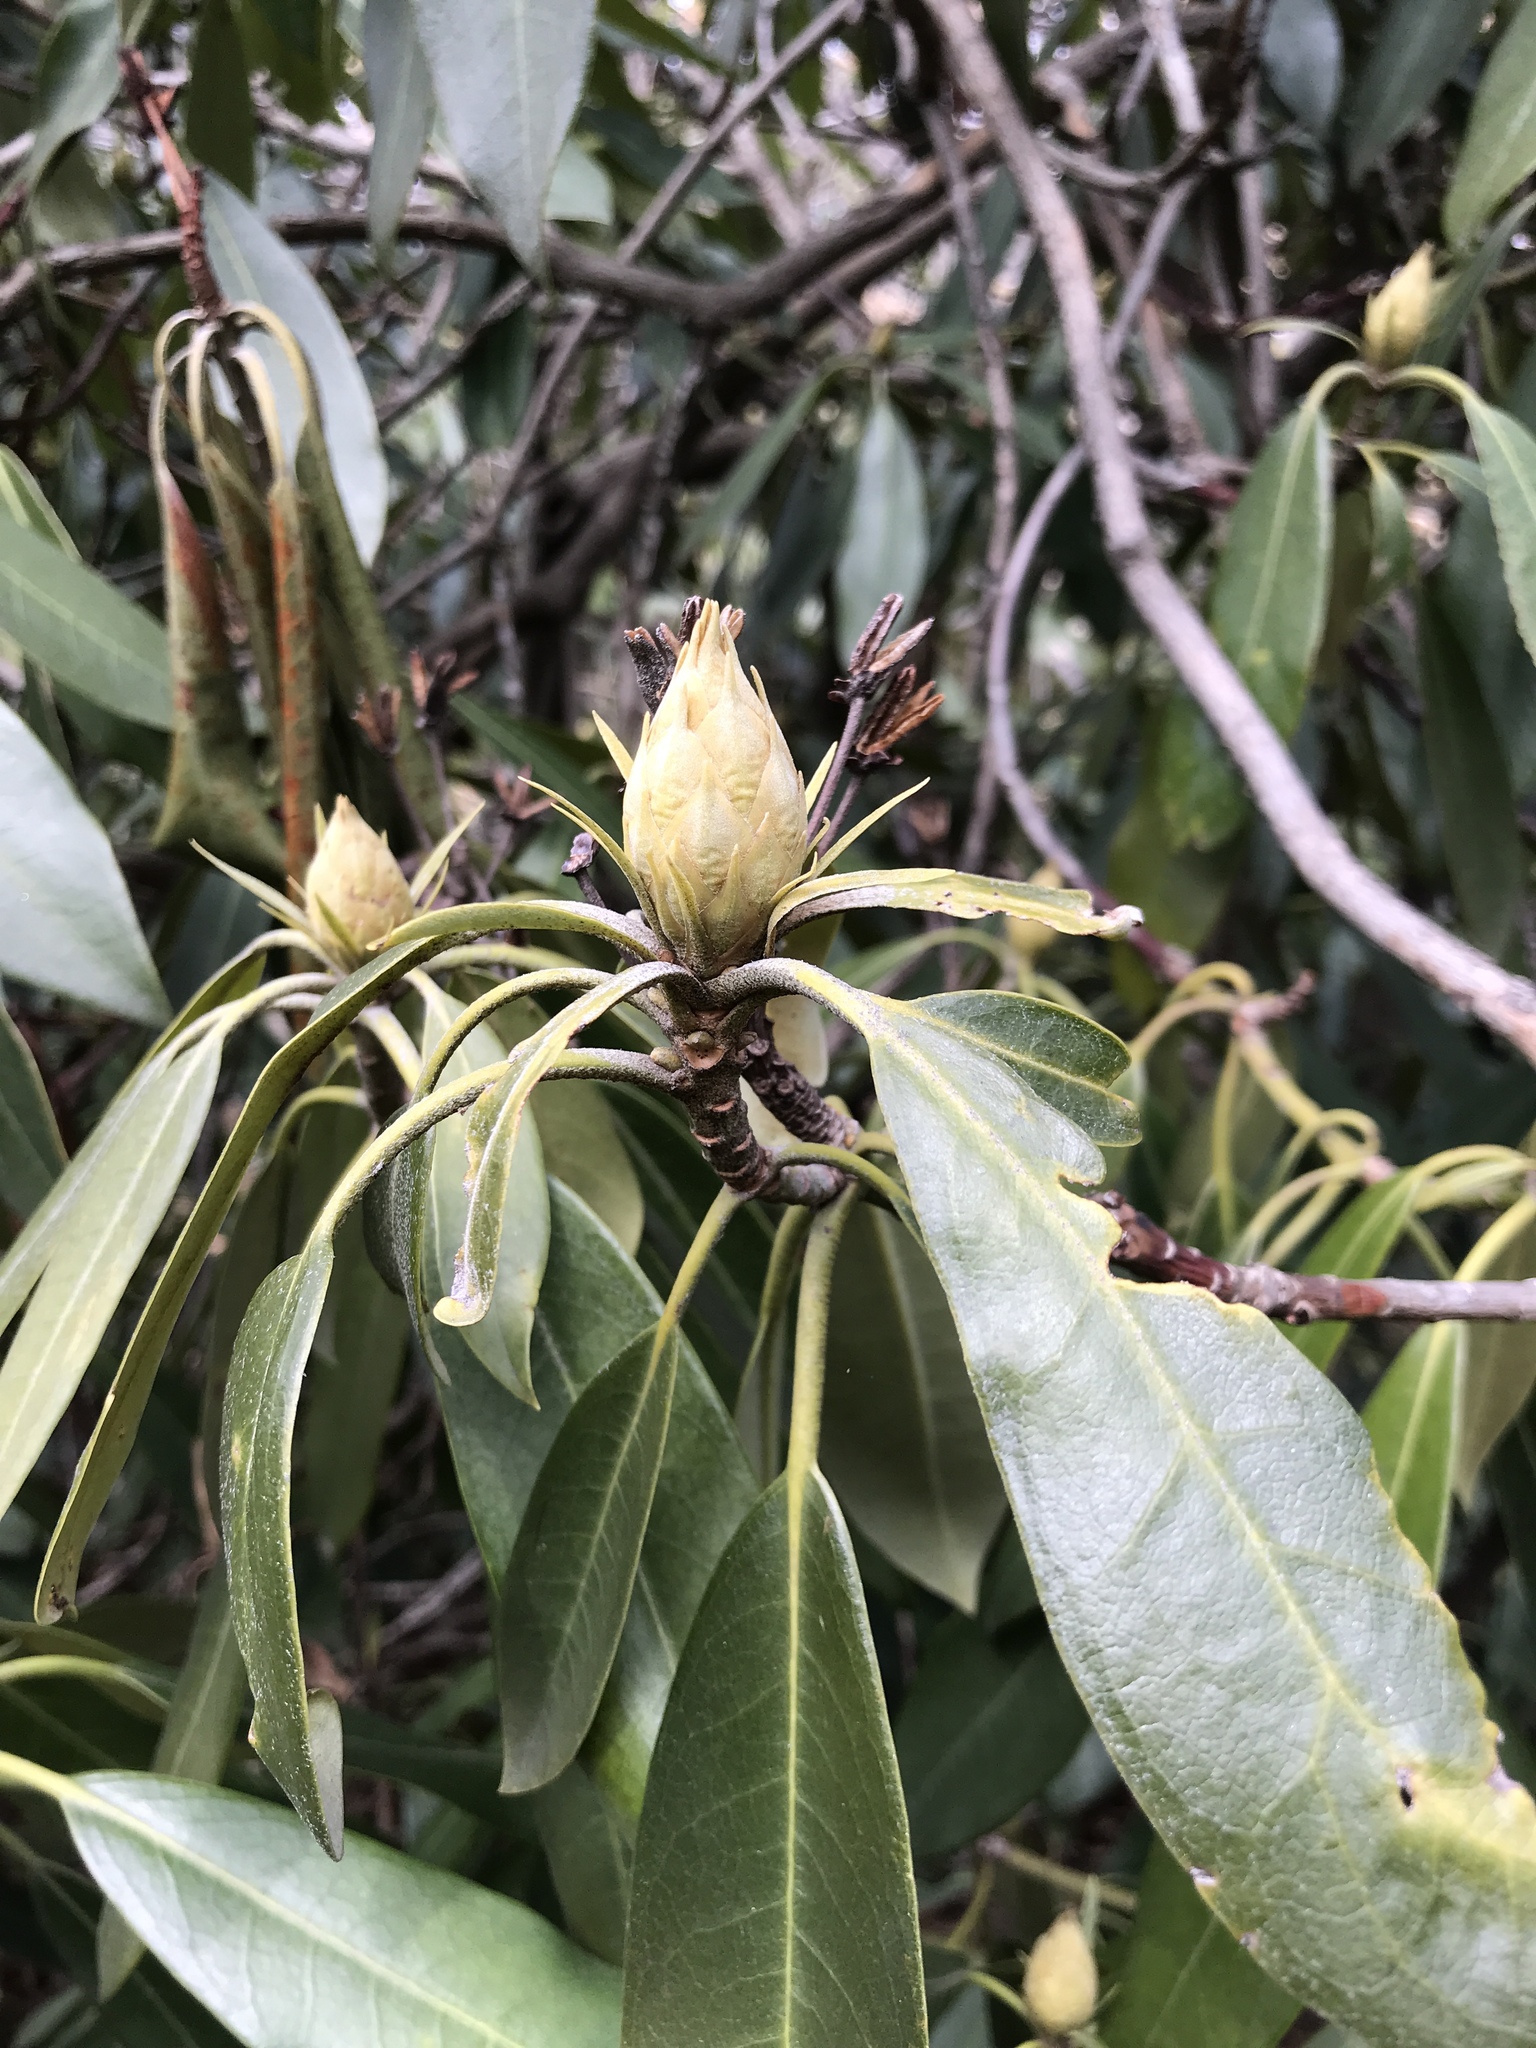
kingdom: Plantae
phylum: Tracheophyta
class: Magnoliopsida
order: Ericales
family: Ericaceae
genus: Rhododendron
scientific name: Rhododendron maximum
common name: Great rhododendron
